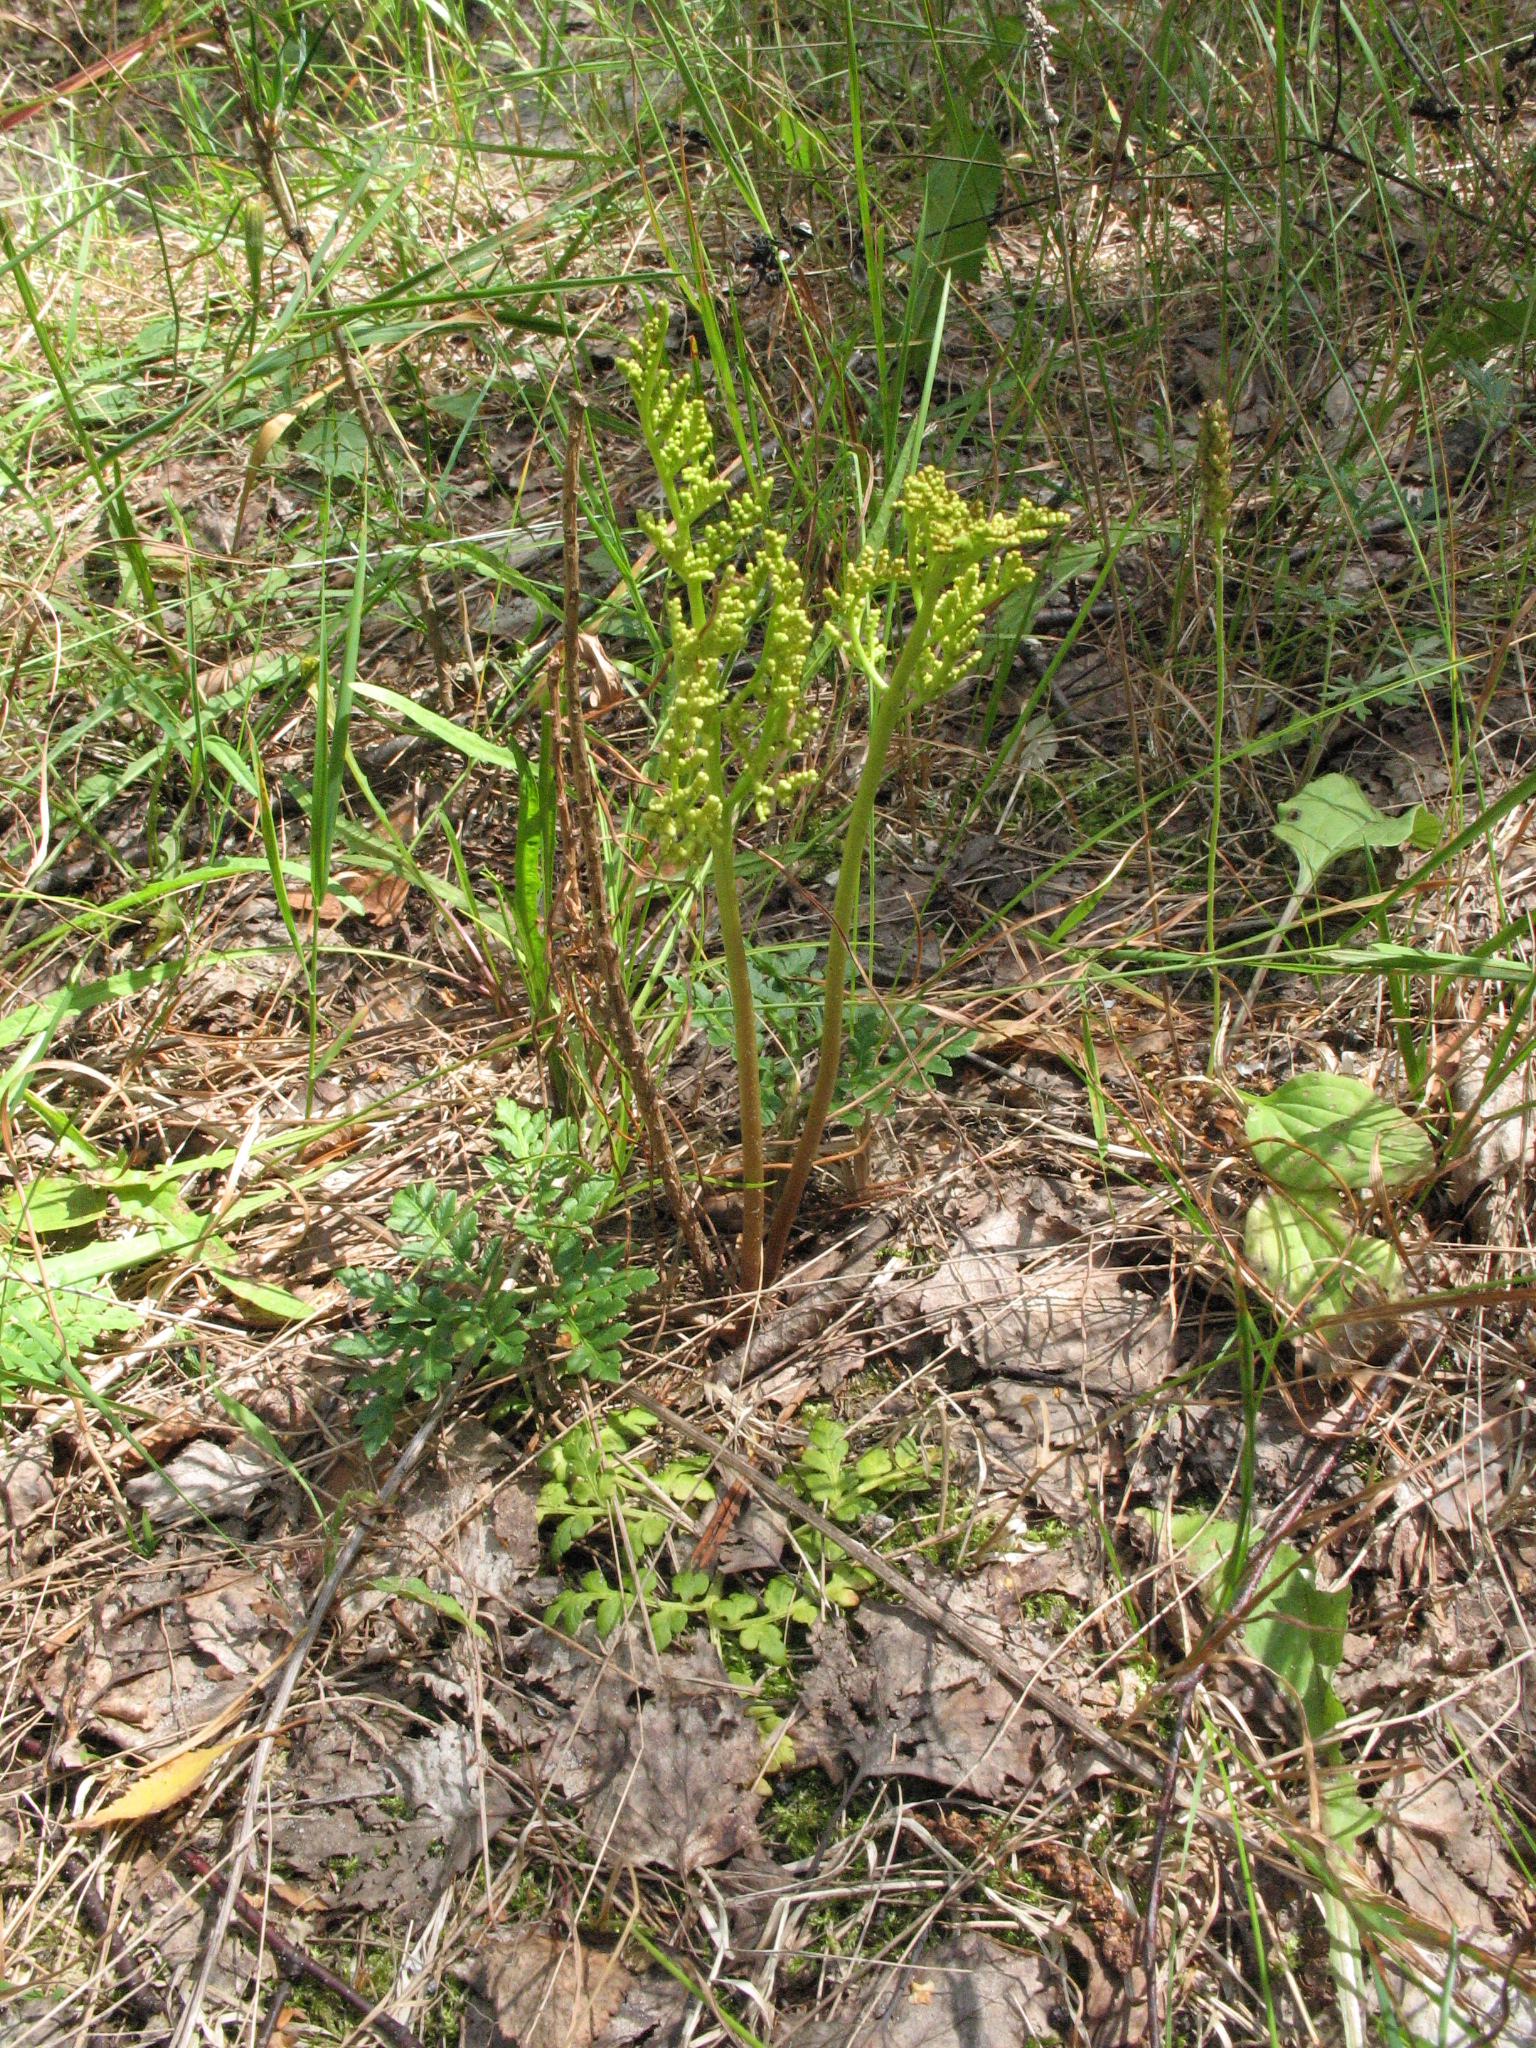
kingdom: Plantae
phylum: Tracheophyta
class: Polypodiopsida
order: Ophioglossales
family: Ophioglossaceae
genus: Sceptridium
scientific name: Sceptridium multifidum
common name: Leathery grape fern
